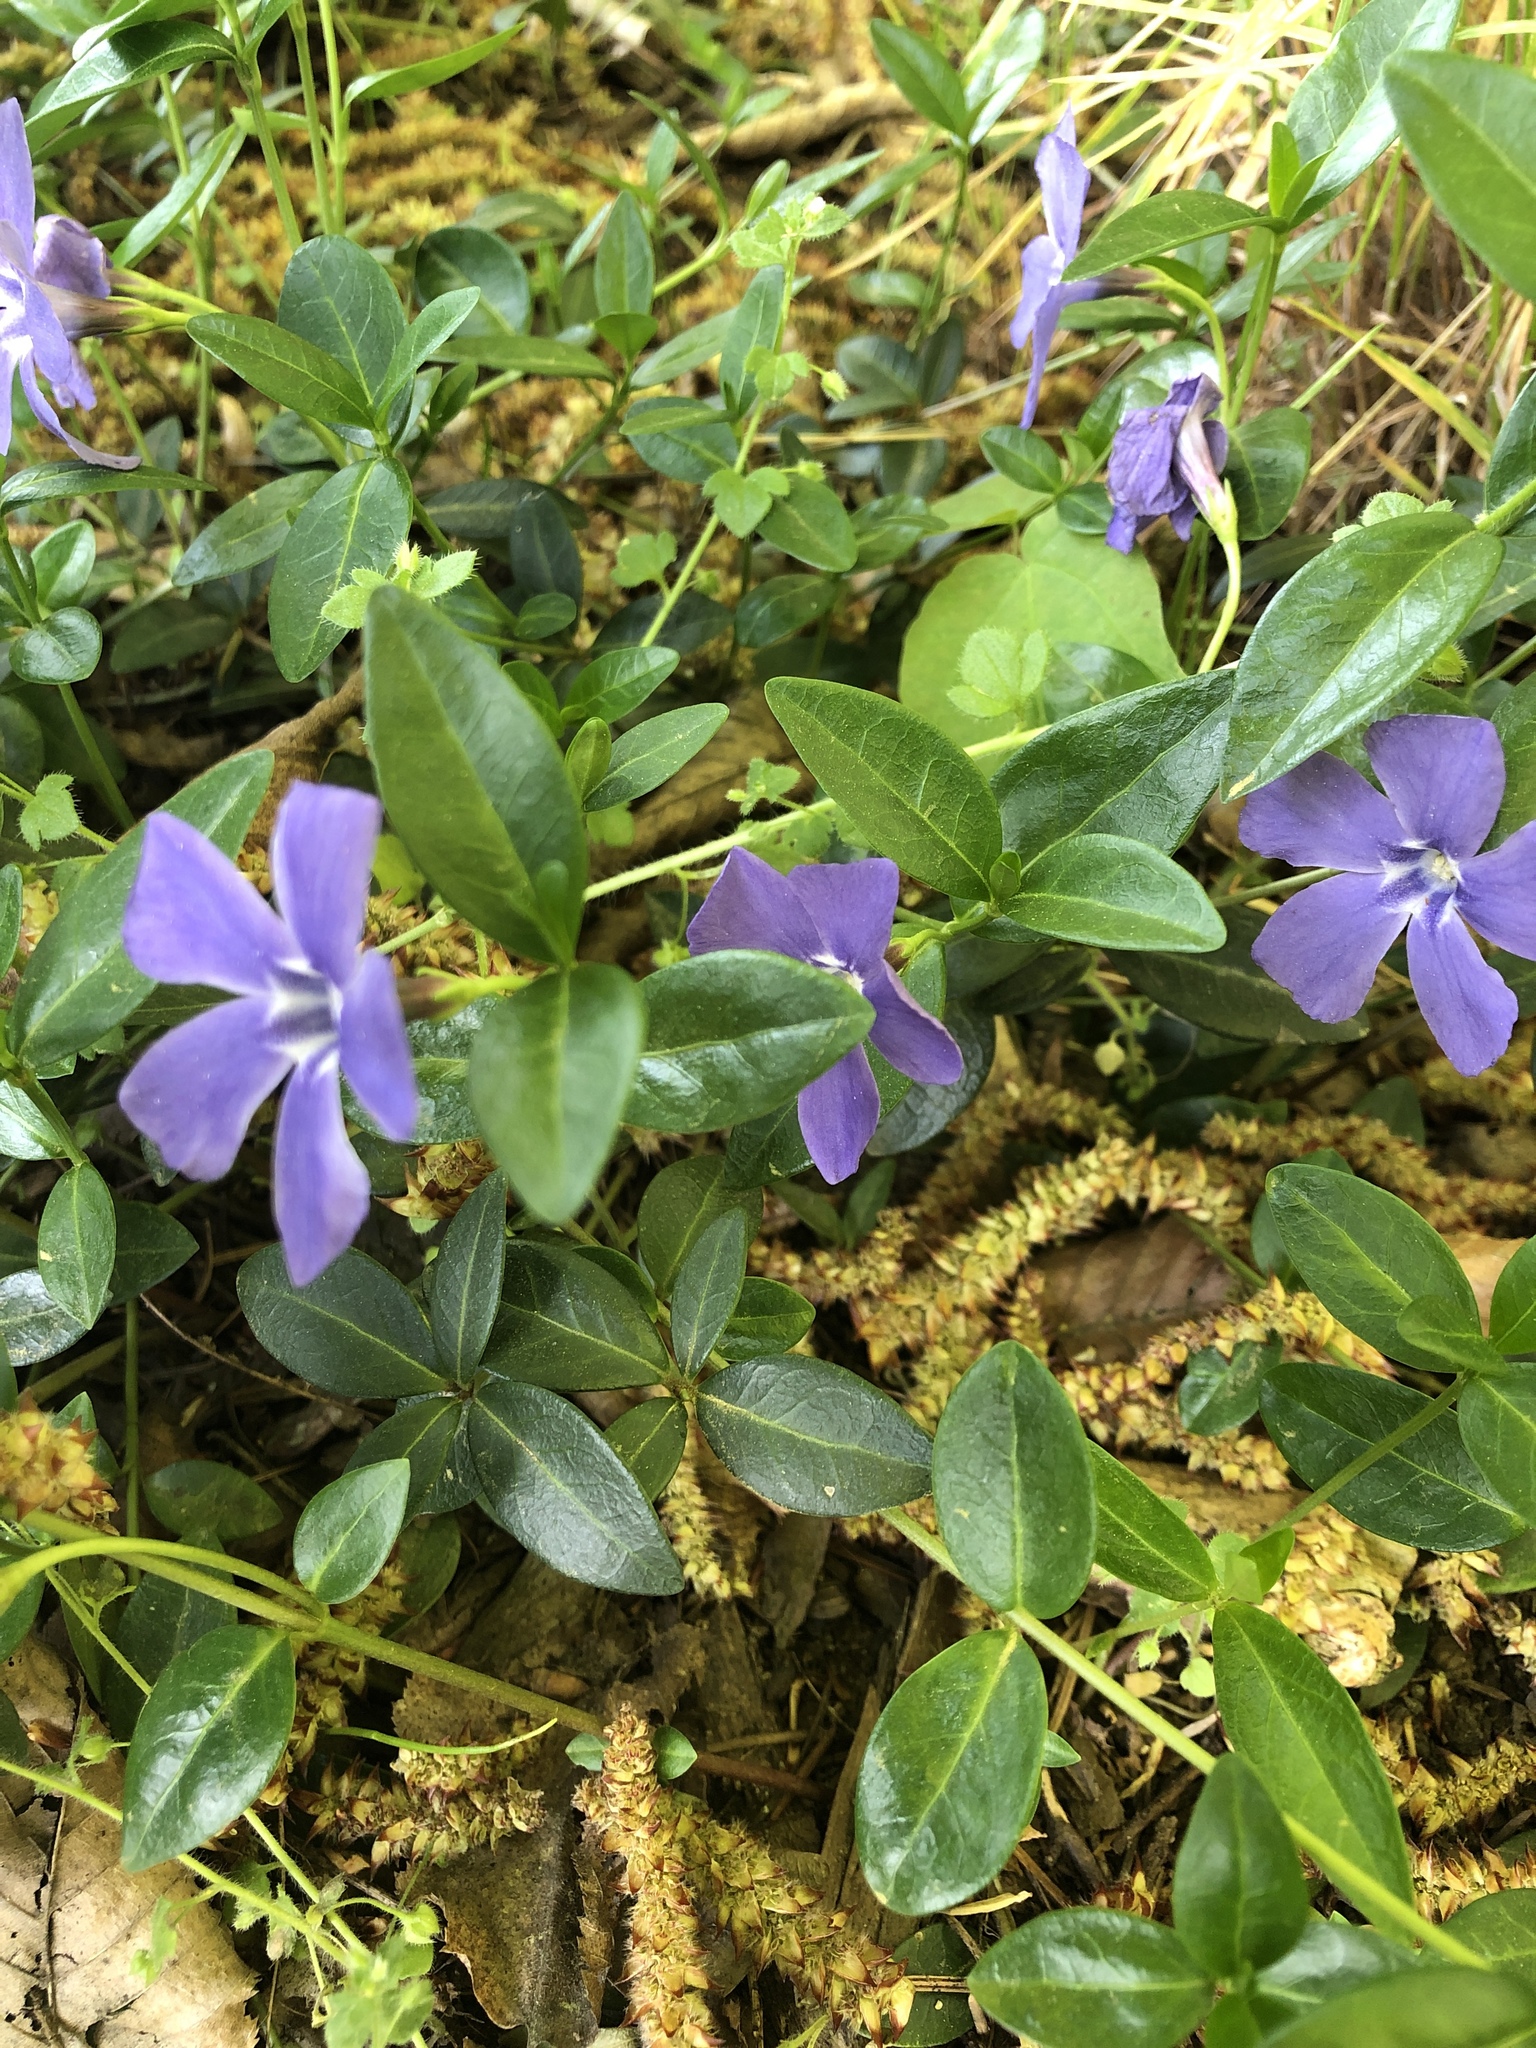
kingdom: Plantae
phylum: Tracheophyta
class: Magnoliopsida
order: Gentianales
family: Apocynaceae
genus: Vinca
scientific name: Vinca minor
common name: Lesser periwinkle
